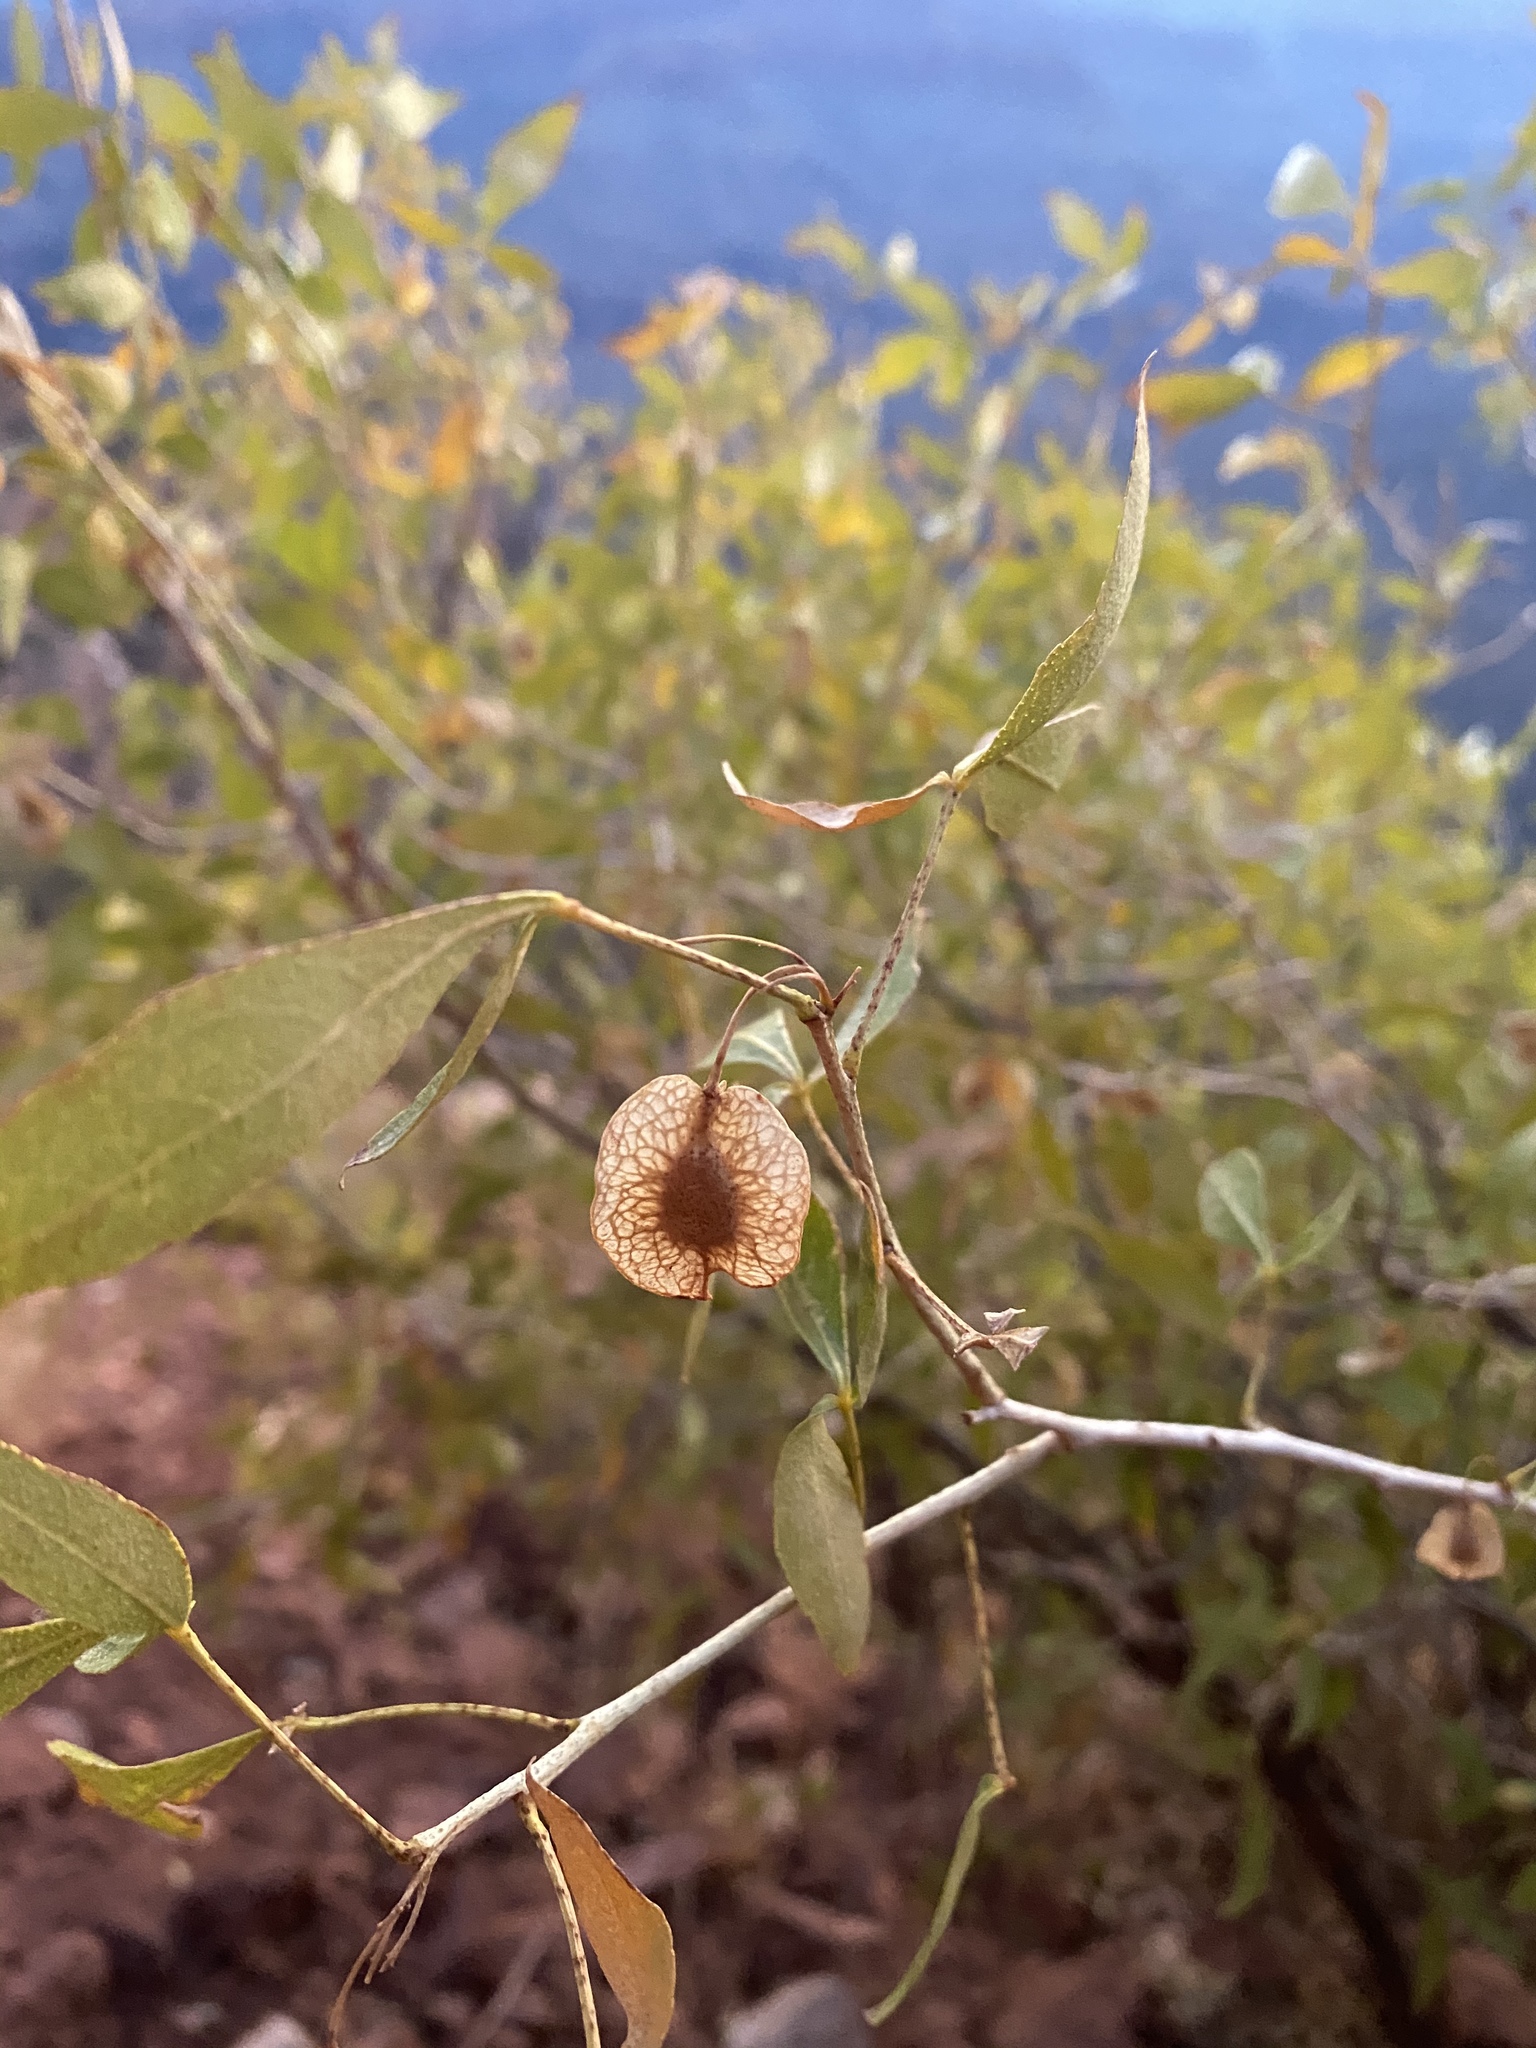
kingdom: Plantae
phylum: Tracheophyta
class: Magnoliopsida
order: Sapindales
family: Rutaceae
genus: Ptelea
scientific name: Ptelea trifoliata
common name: Common hop-tree
